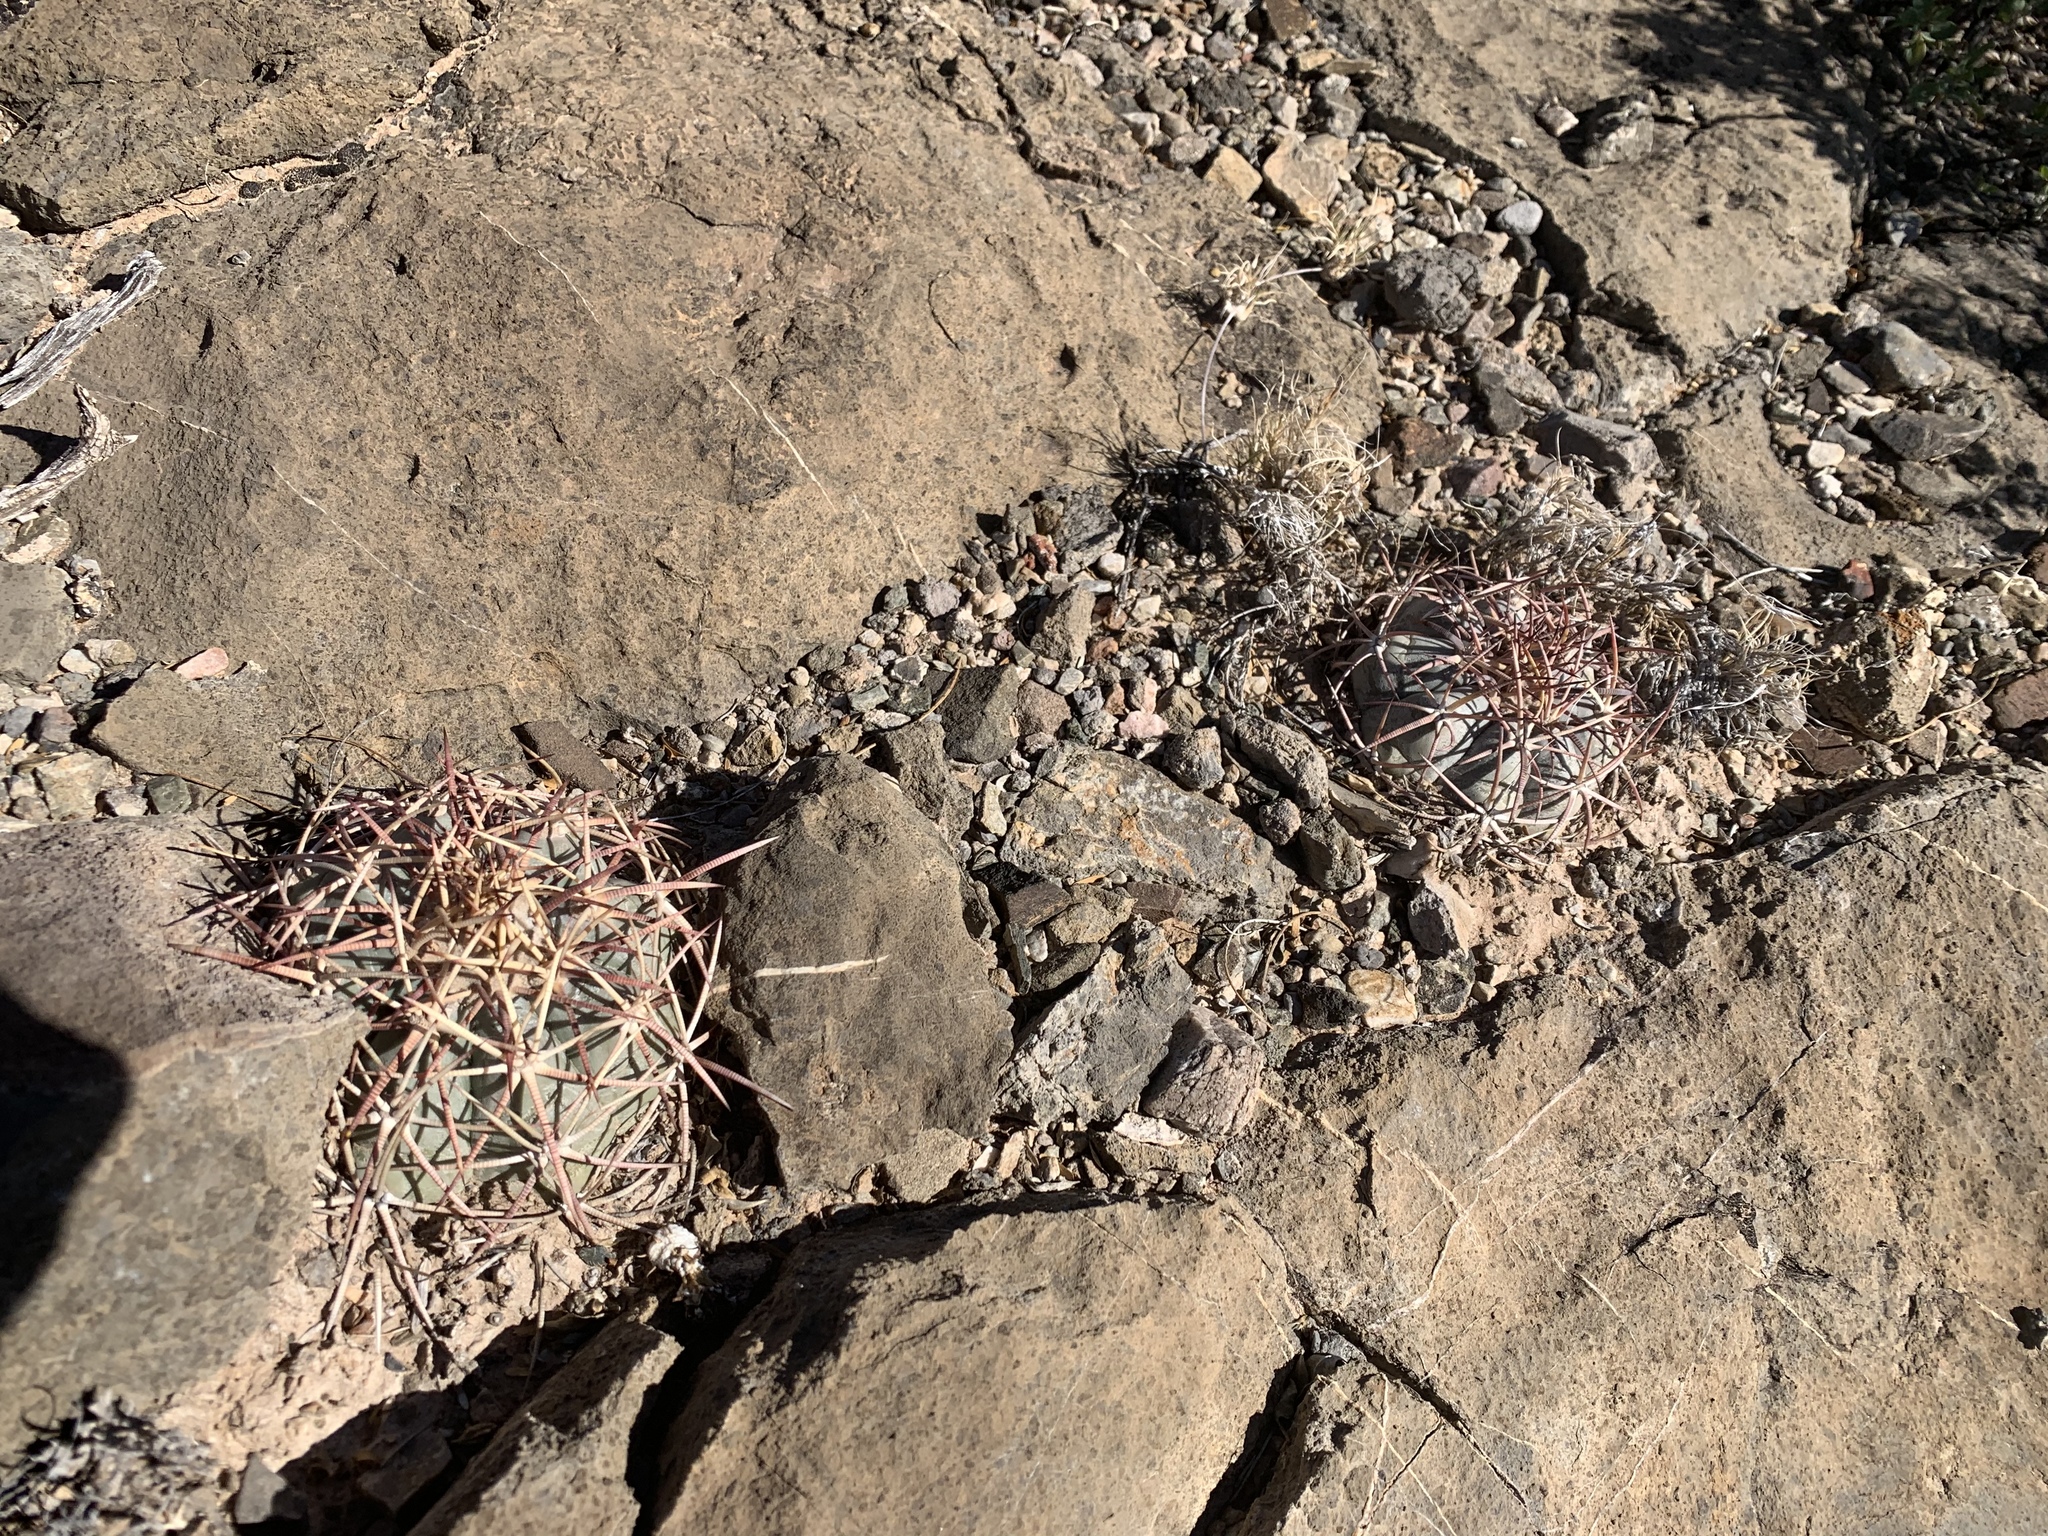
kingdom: Plantae
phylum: Tracheophyta
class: Magnoliopsida
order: Caryophyllales
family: Cactaceae
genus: Echinocactus
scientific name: Echinocactus horizonthalonius
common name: Devilshead
